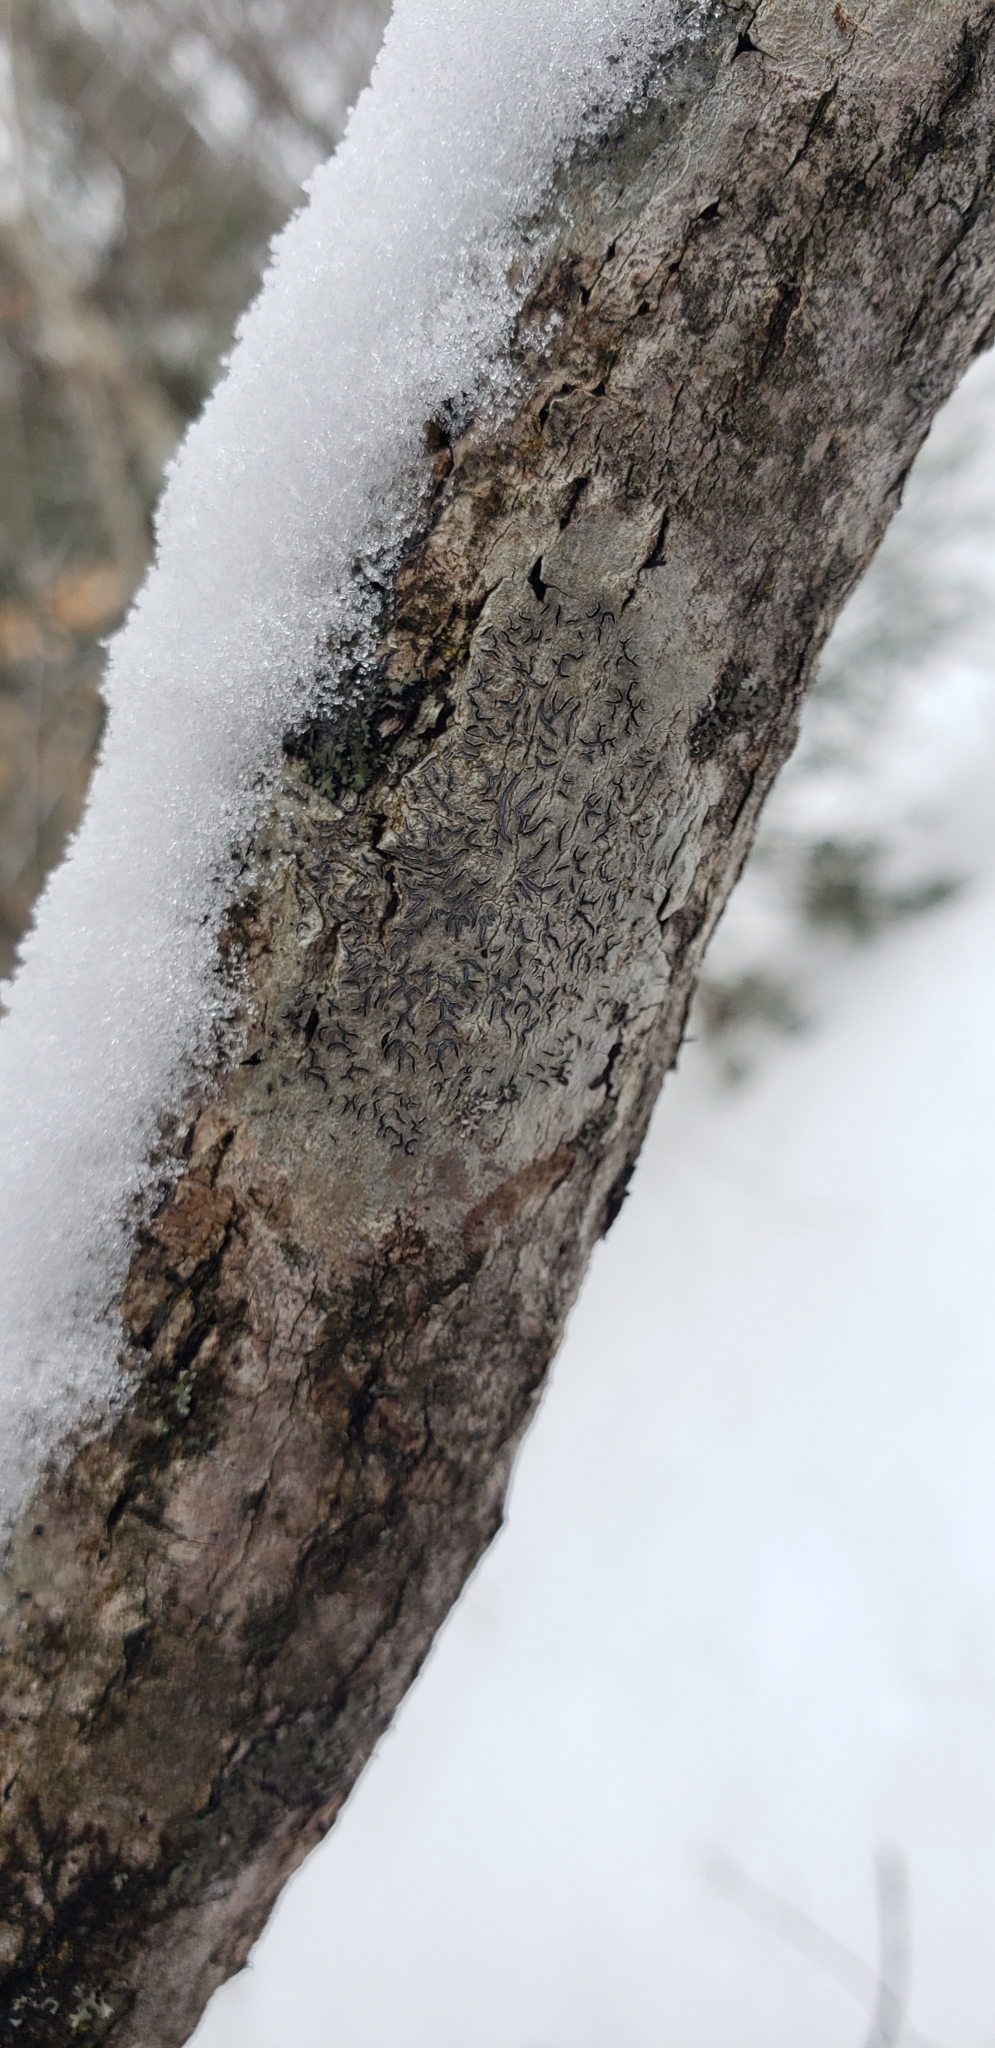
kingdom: Fungi
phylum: Ascomycota
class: Lecanoromycetes
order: Ostropales
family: Graphidaceae
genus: Graphis
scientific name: Graphis scripta
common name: Script lichen
